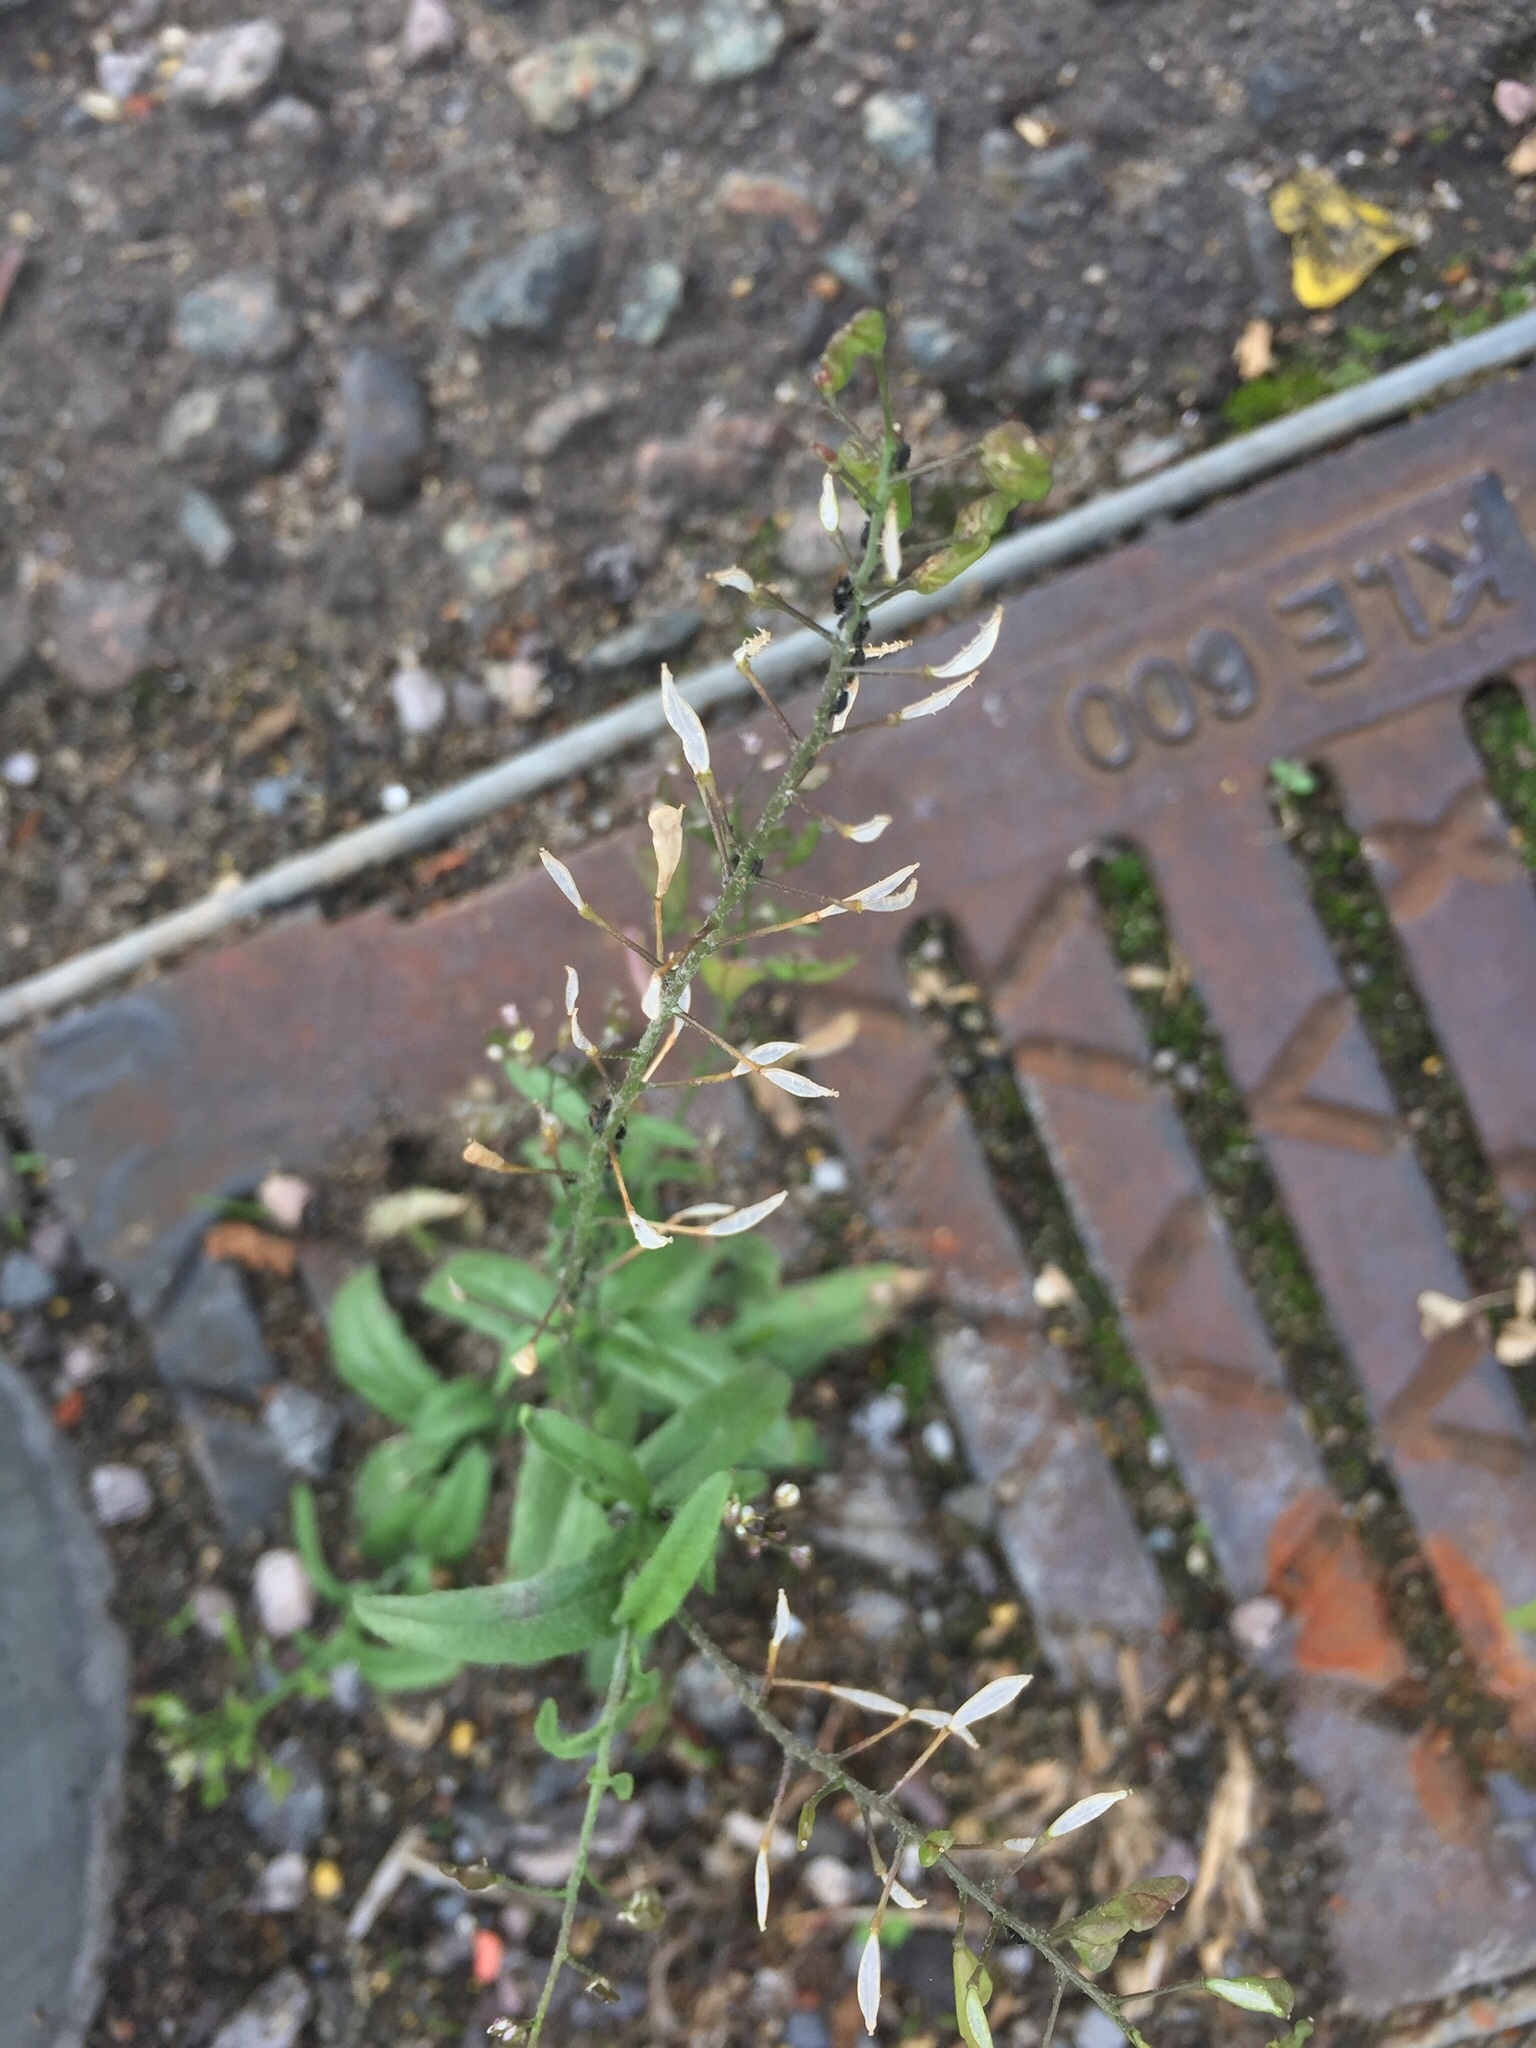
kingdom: Plantae
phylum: Tracheophyta
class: Magnoliopsida
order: Brassicales
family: Brassicaceae
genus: Capsella
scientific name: Capsella bursa-pastoris
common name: Shepherd's purse
